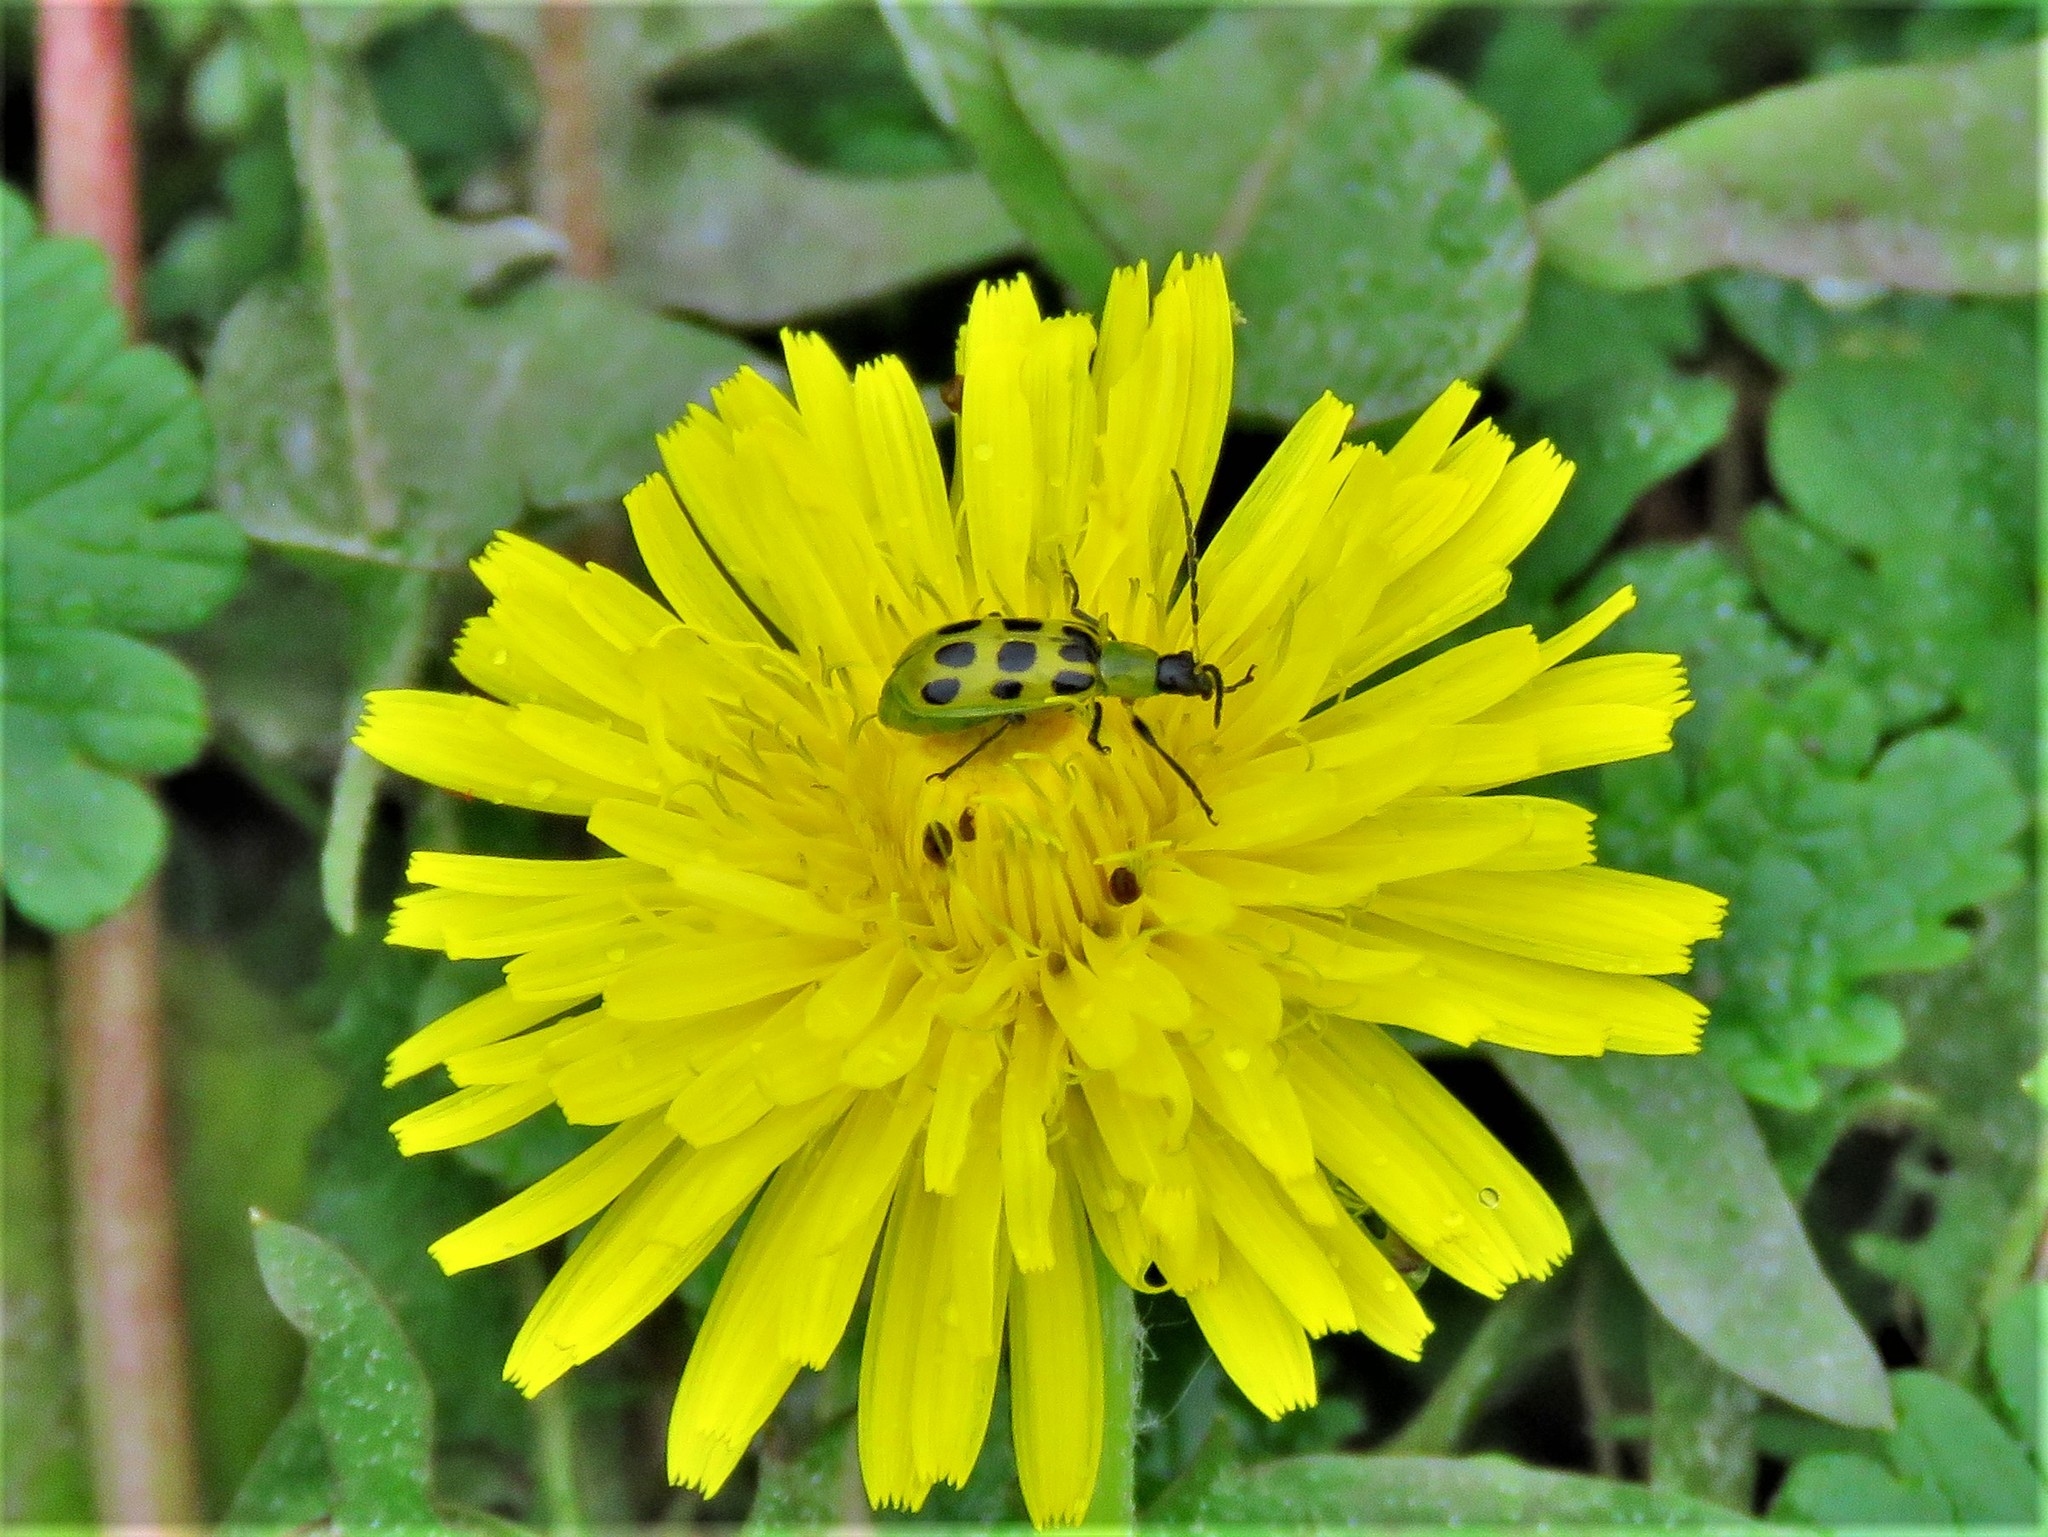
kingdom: Animalia
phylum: Arthropoda
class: Insecta
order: Coleoptera
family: Chrysomelidae
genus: Diabrotica
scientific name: Diabrotica undecimpunctata
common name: Spotted cucumber beetle
